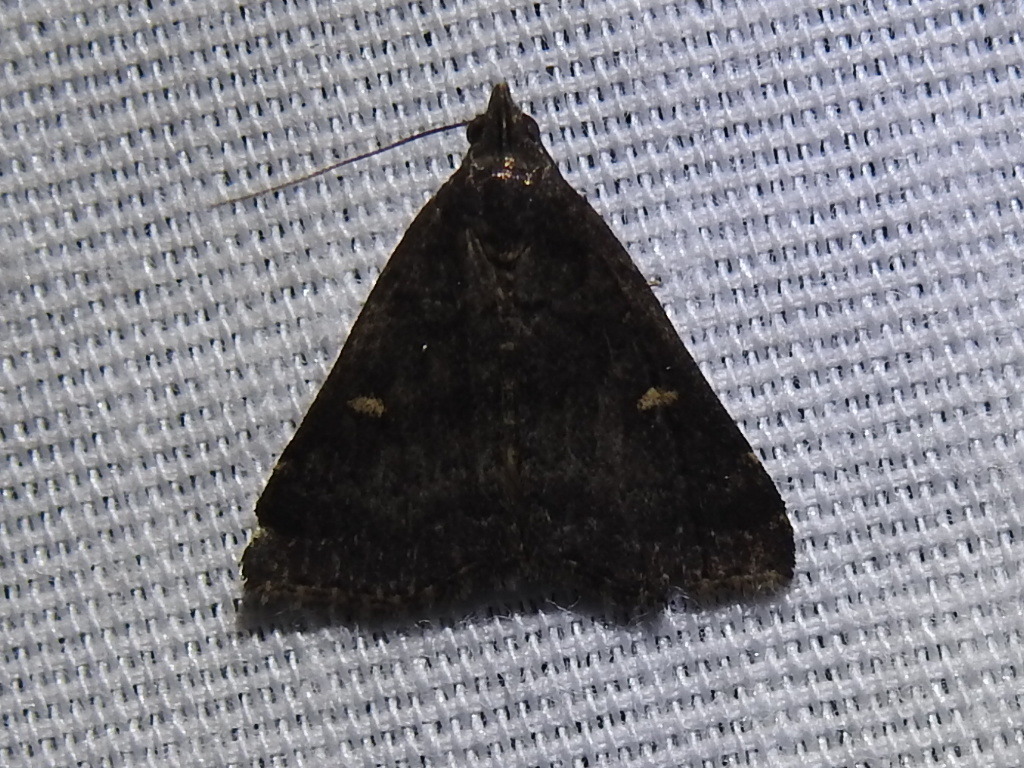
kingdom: Animalia
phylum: Arthropoda
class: Insecta
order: Lepidoptera
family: Erebidae
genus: Tetanolita
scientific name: Tetanolita mynesalis
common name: Smoky tetanolita moth
